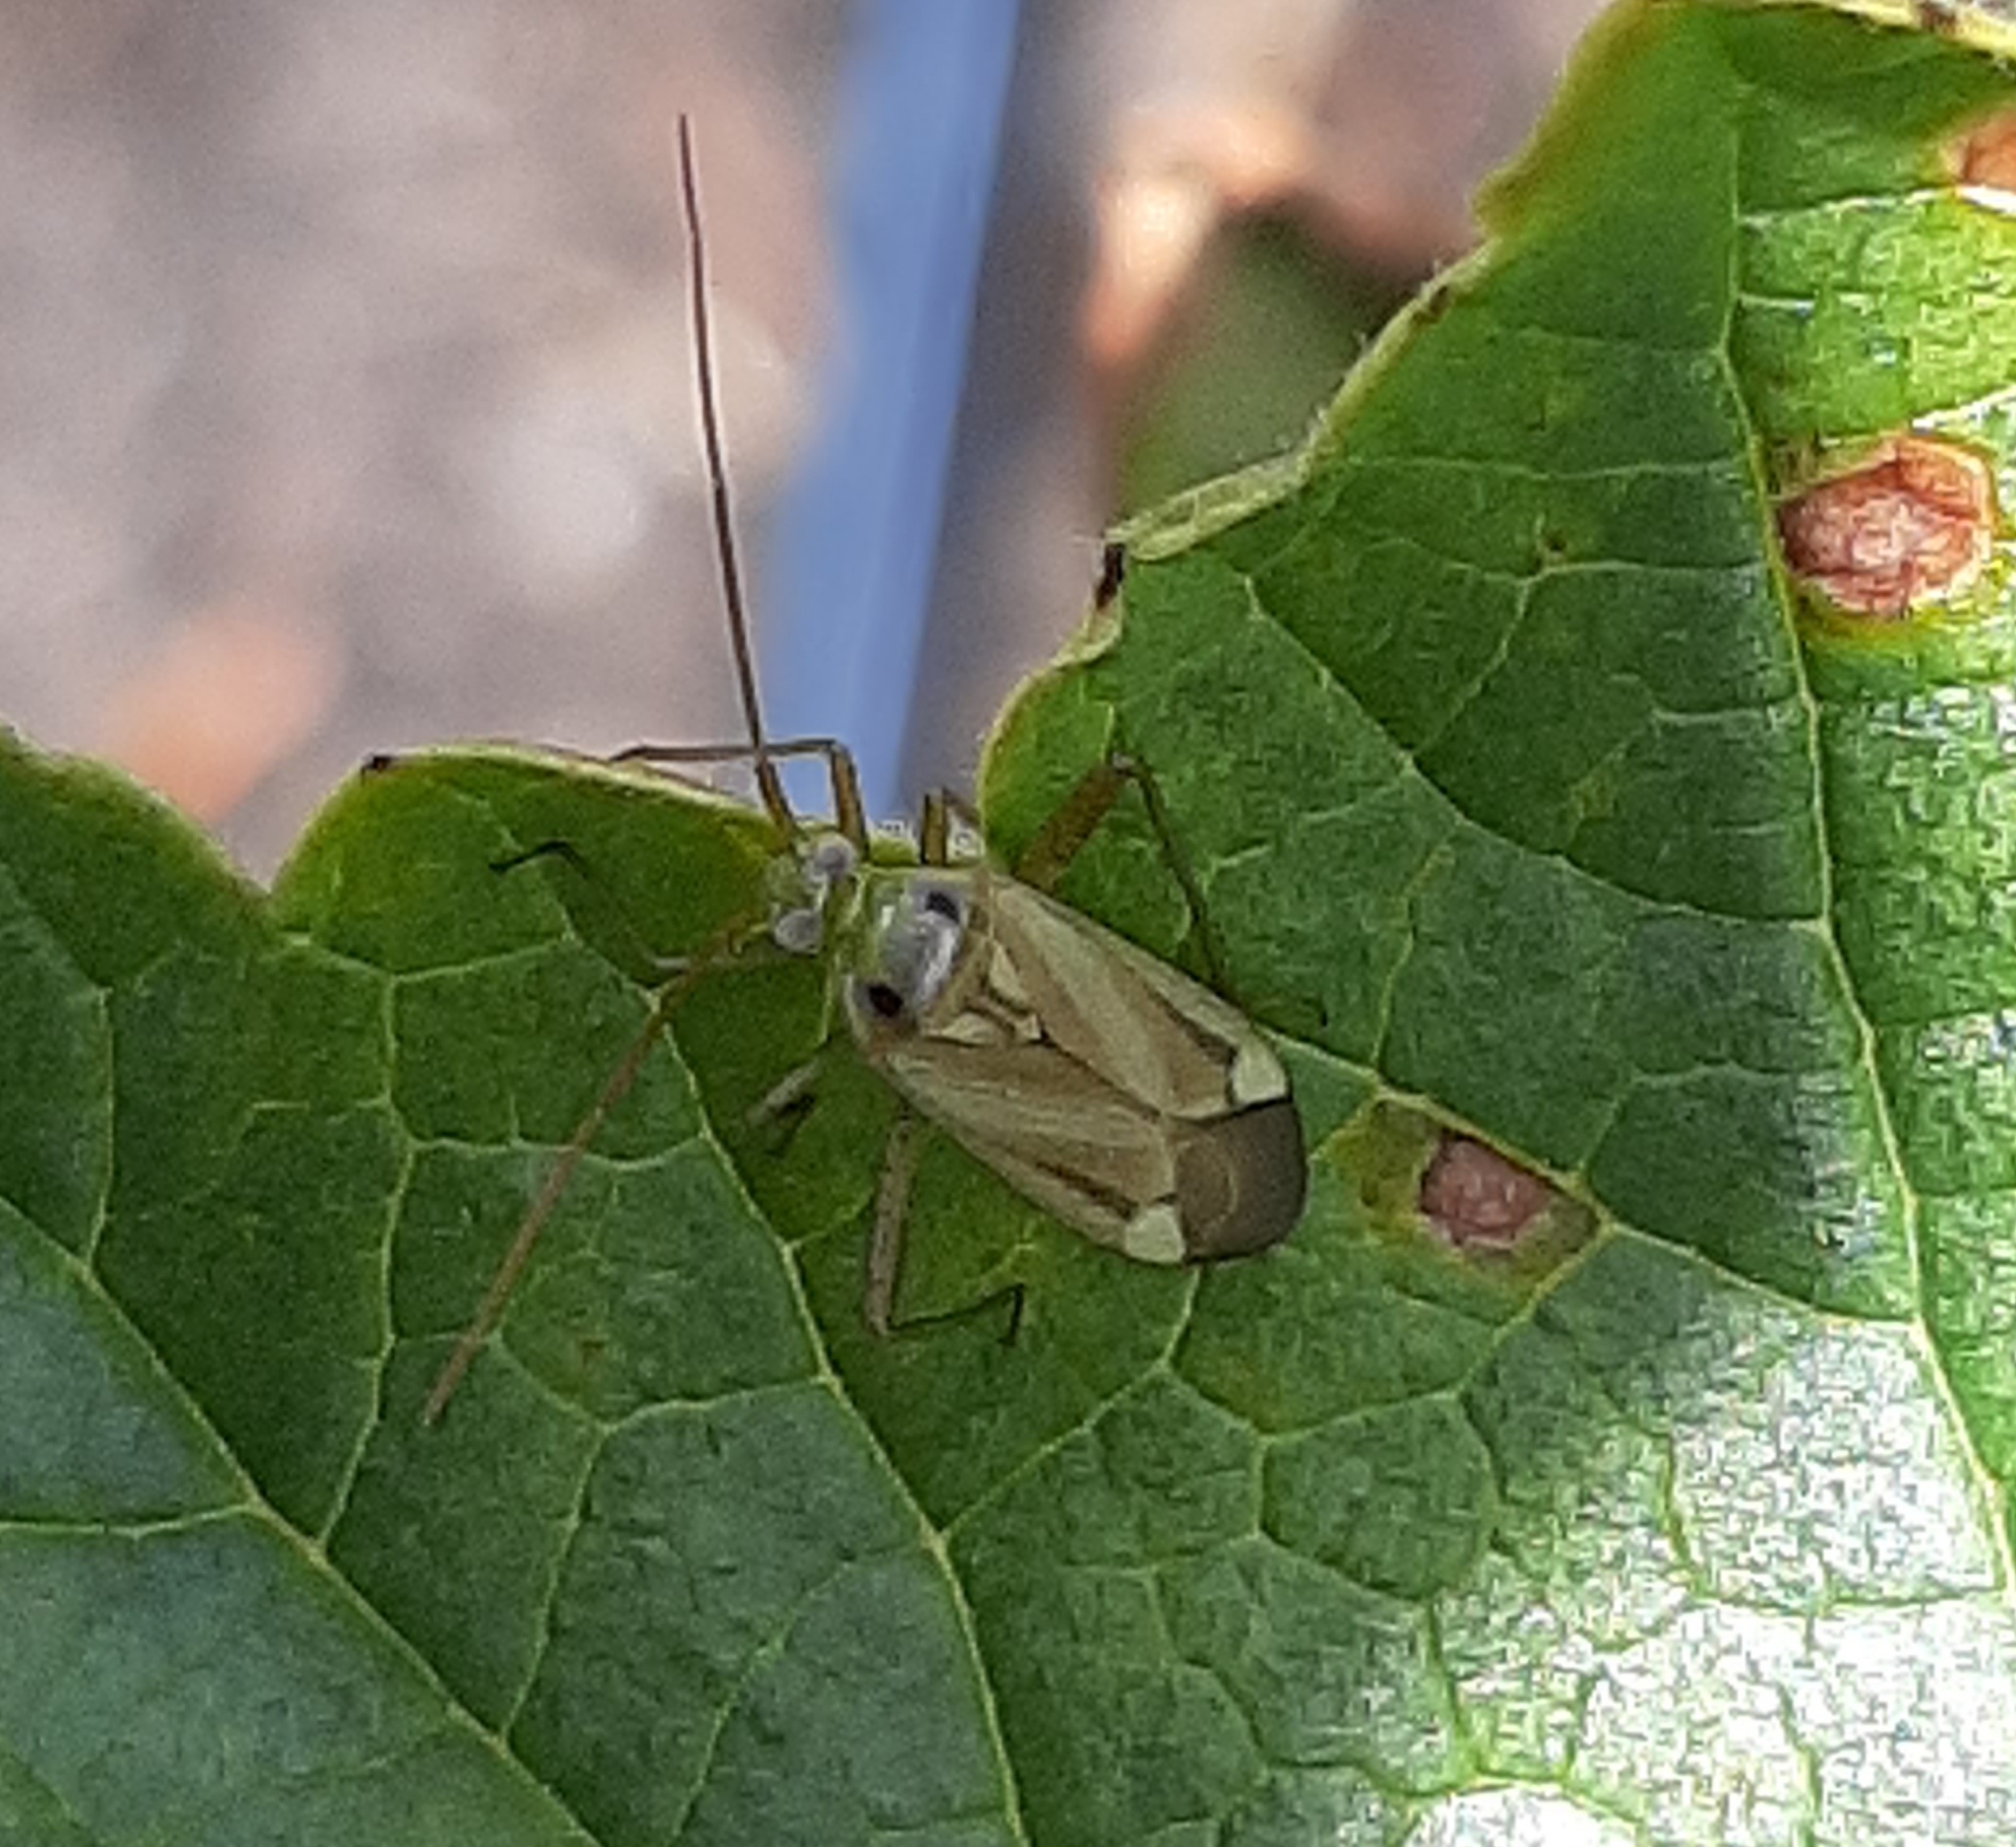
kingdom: Animalia
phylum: Arthropoda
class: Insecta
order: Hemiptera
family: Miridae
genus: Adelphocoris
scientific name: Adelphocoris lineolatus
